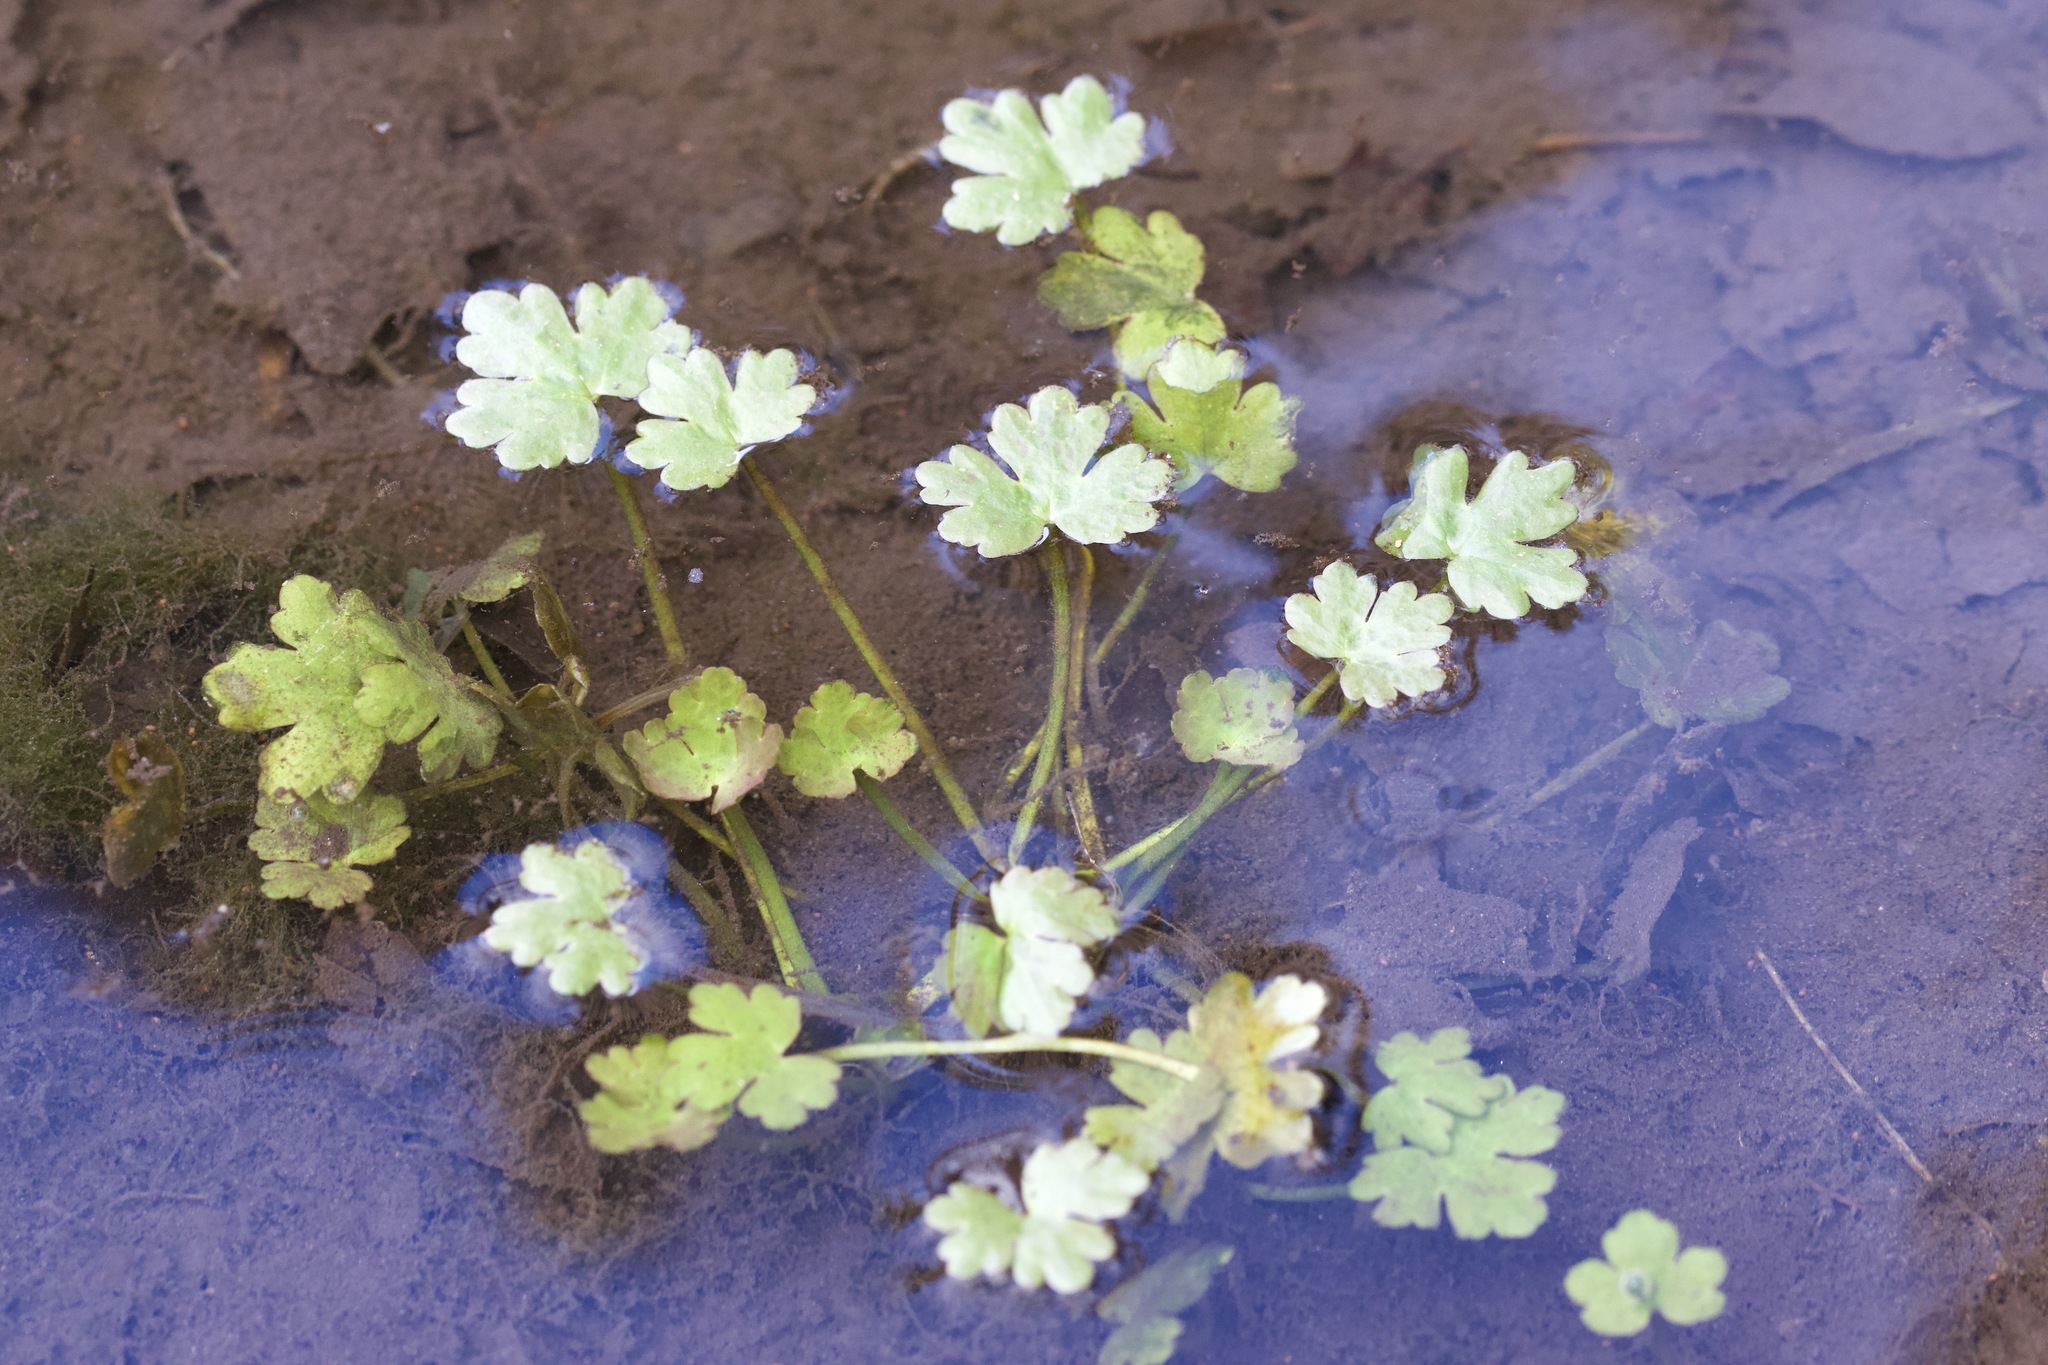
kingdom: Plantae
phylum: Tracheophyta
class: Magnoliopsida
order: Ranunculales
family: Ranunculaceae
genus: Ranunculus
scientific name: Ranunculus sceleratus
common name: Celery-leaved buttercup
